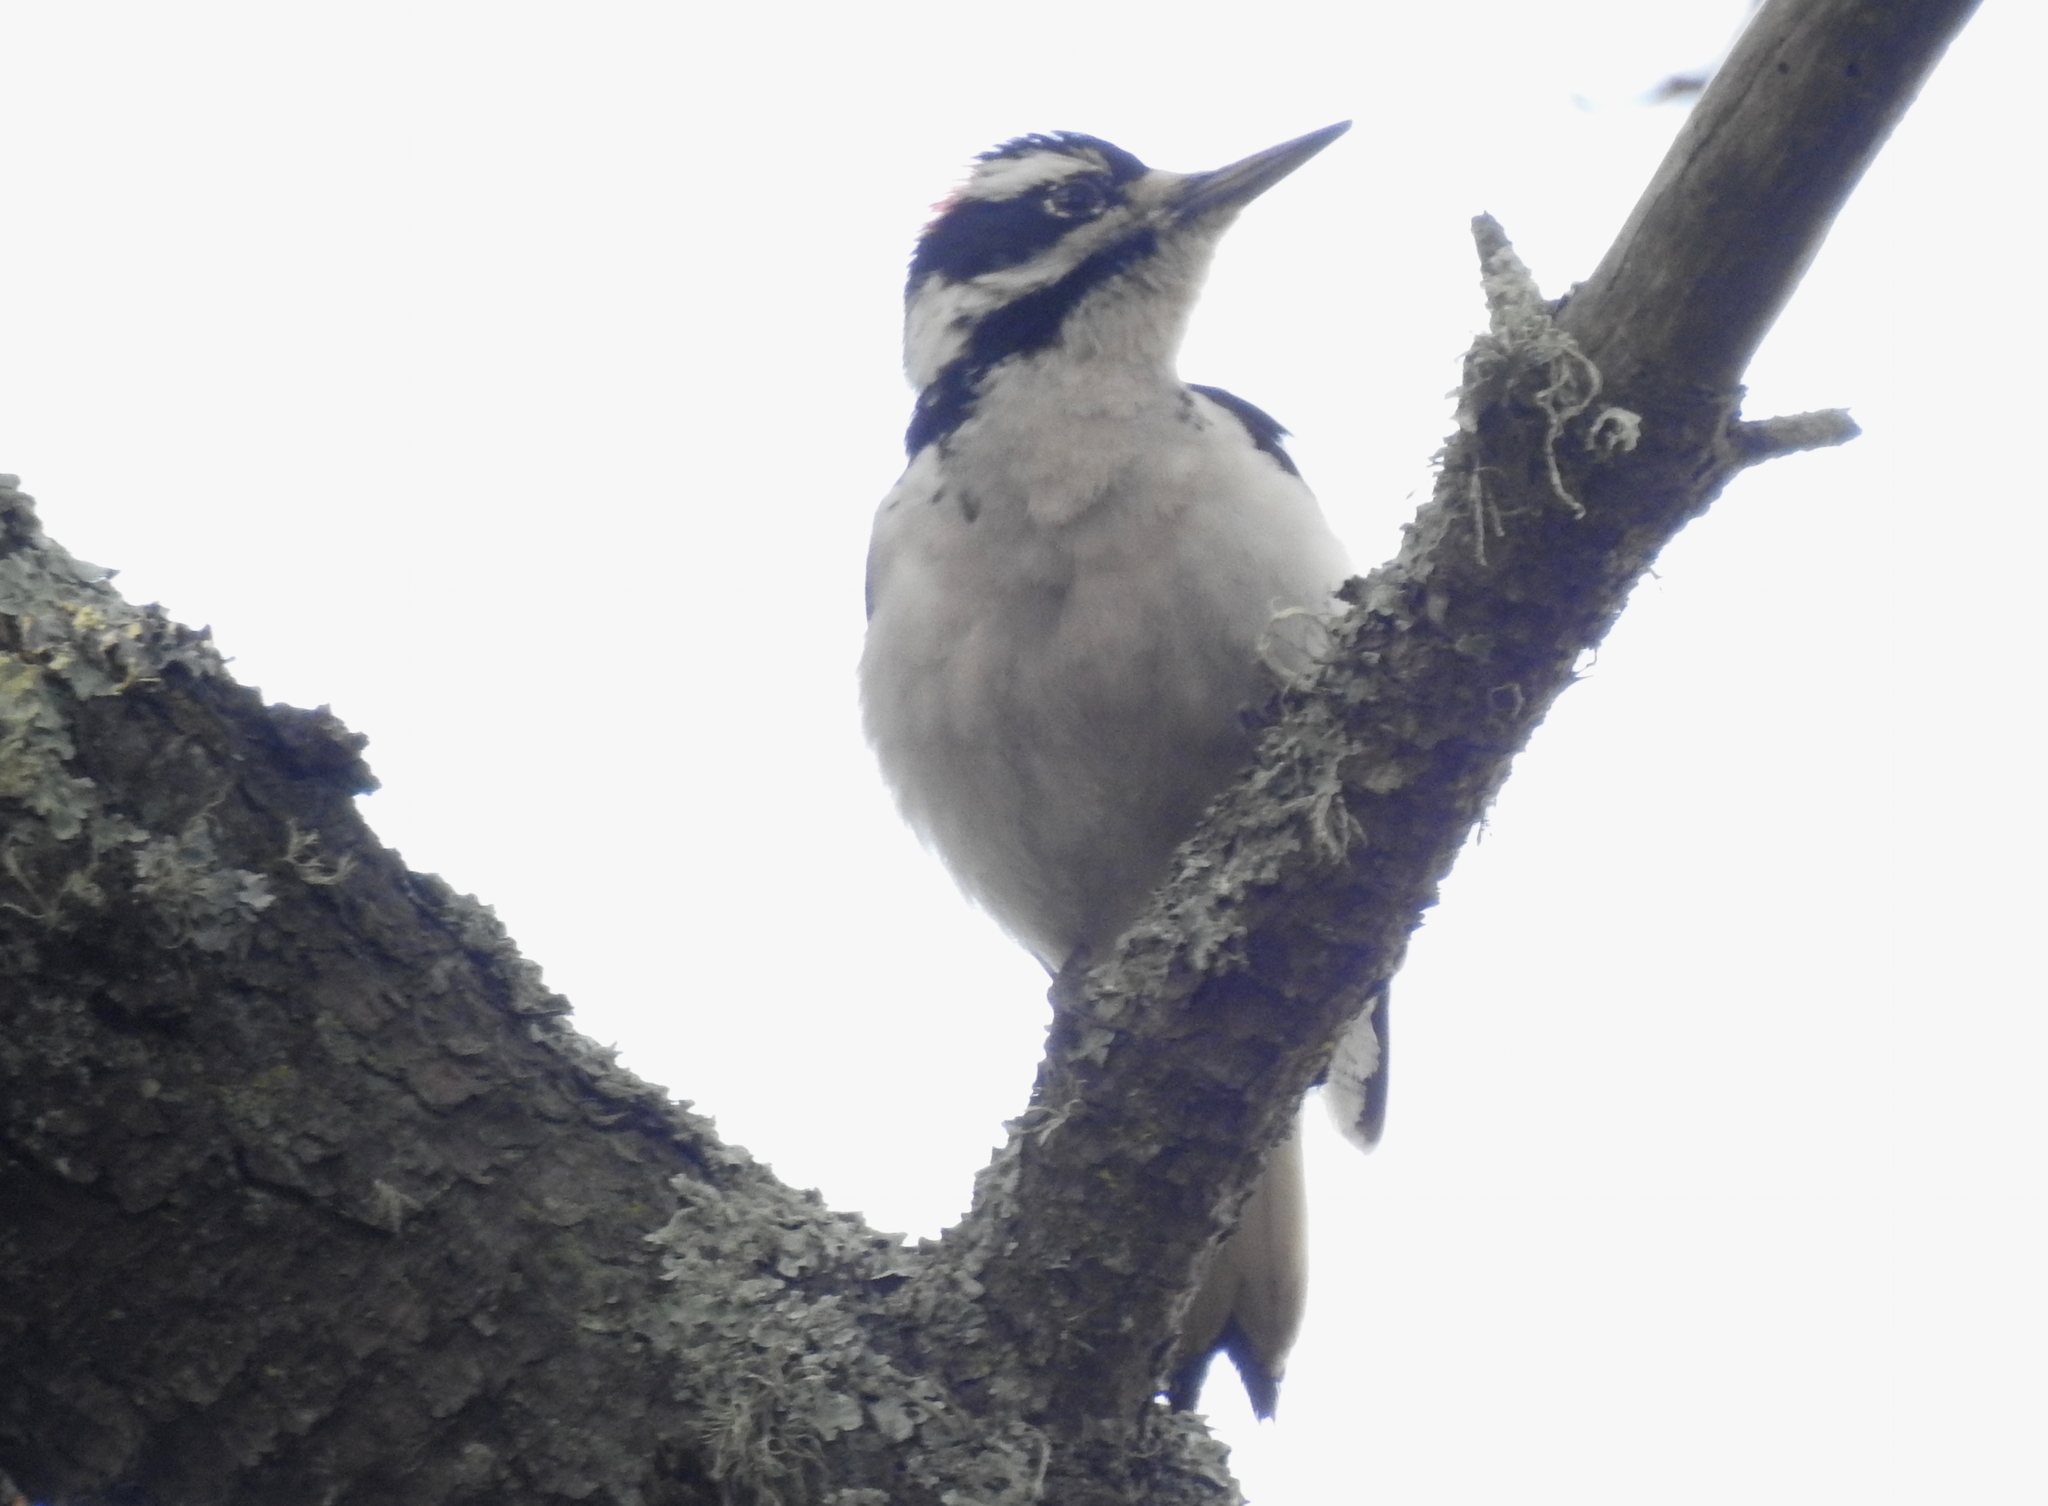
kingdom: Animalia
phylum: Chordata
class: Aves
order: Piciformes
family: Picidae
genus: Leuconotopicus
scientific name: Leuconotopicus villosus
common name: Hairy woodpecker
